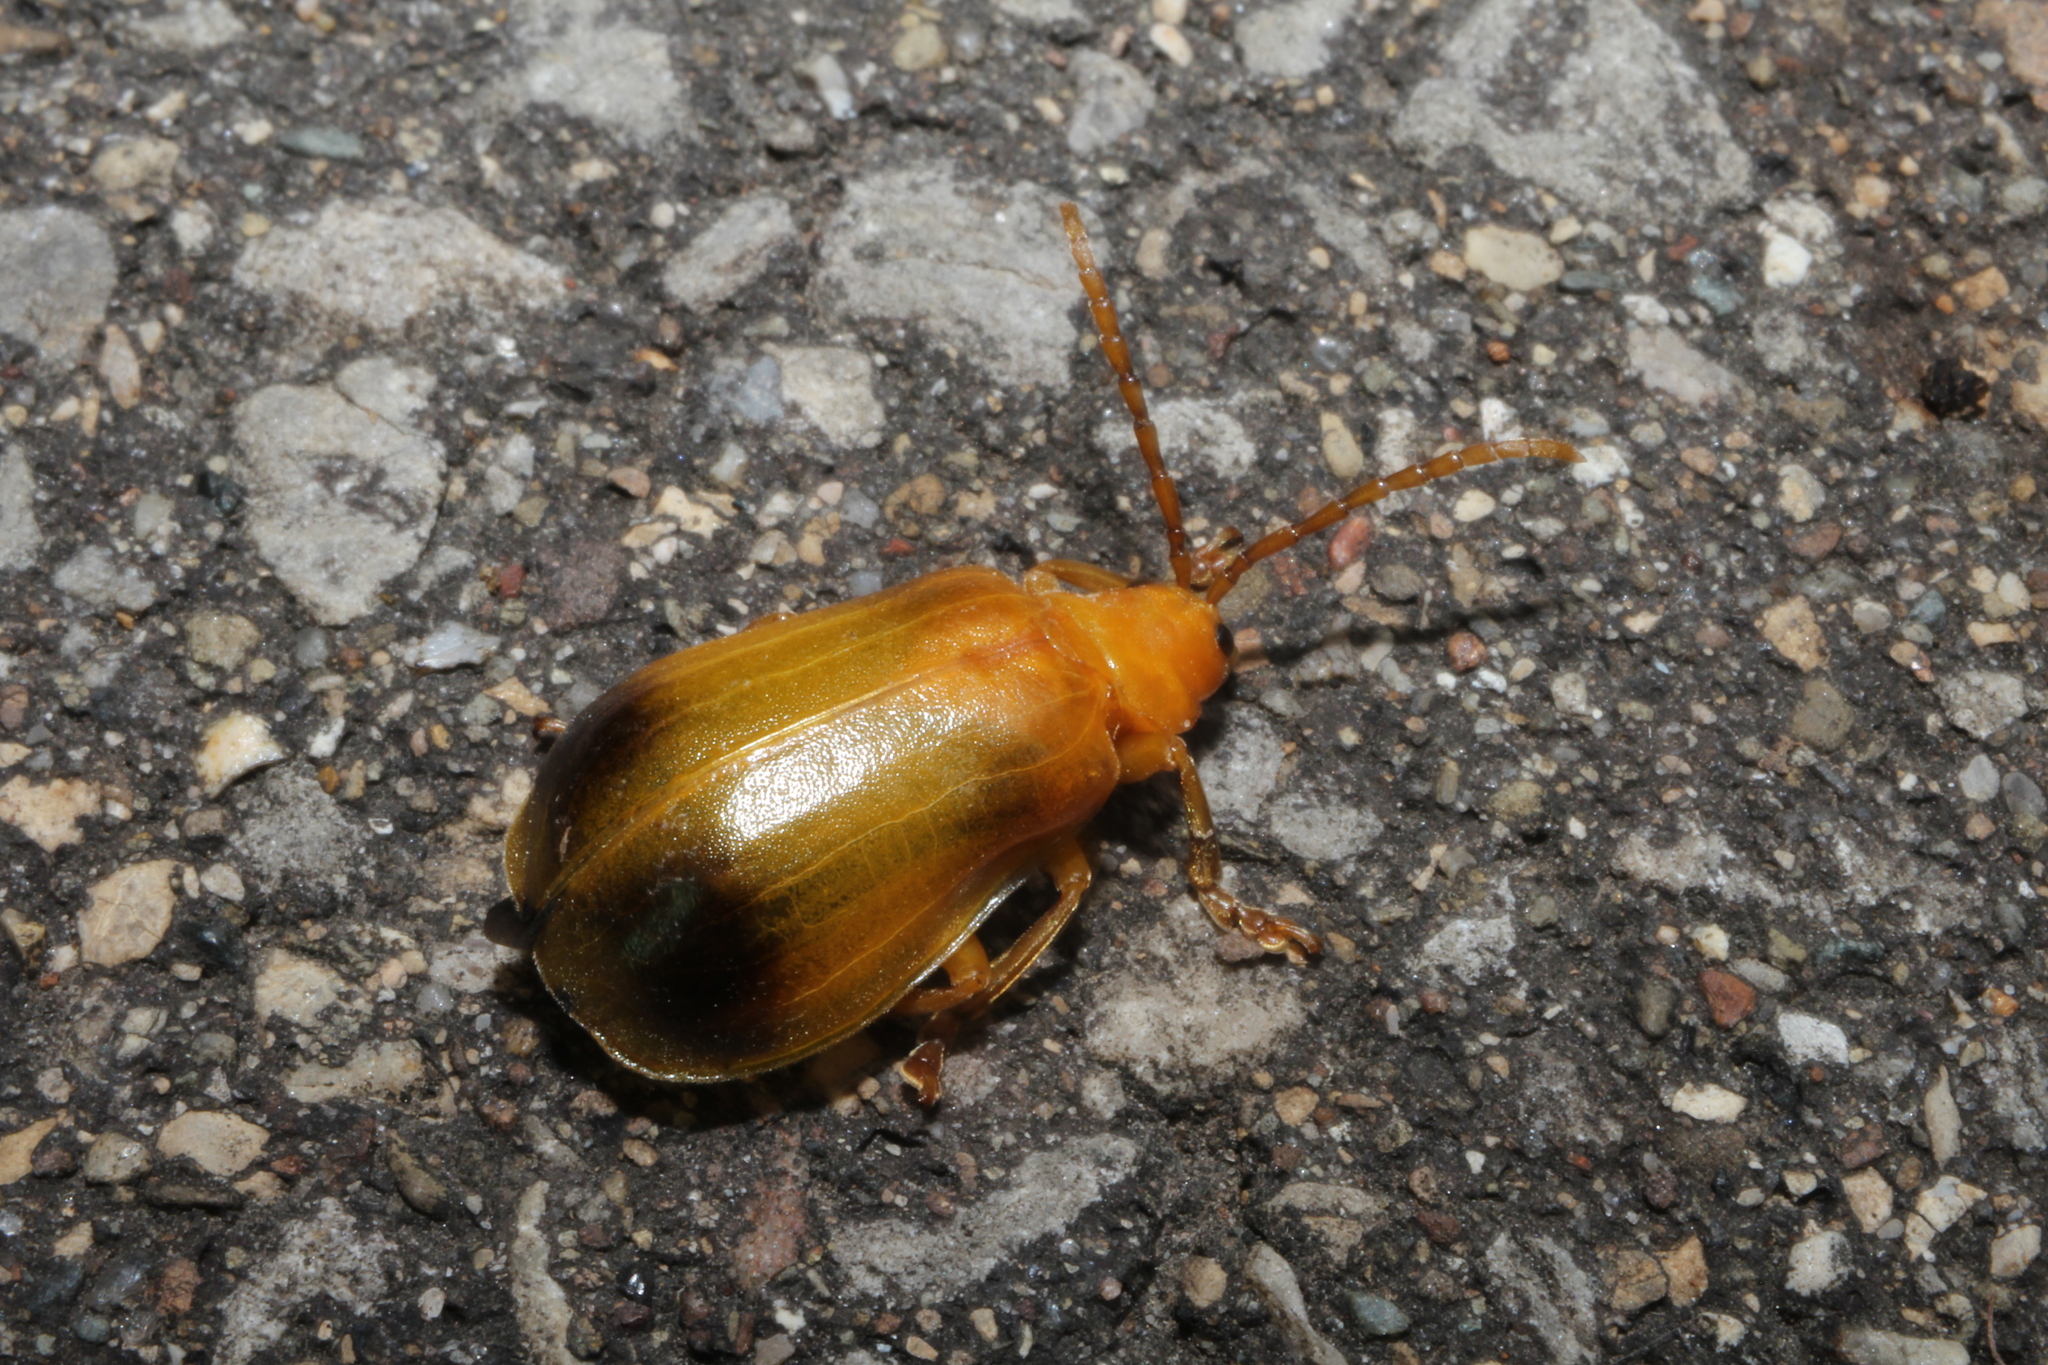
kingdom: Animalia
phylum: Arthropoda
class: Insecta
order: Coleoptera
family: Chrysomelidae
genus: Monocesta
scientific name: Monocesta coryli
